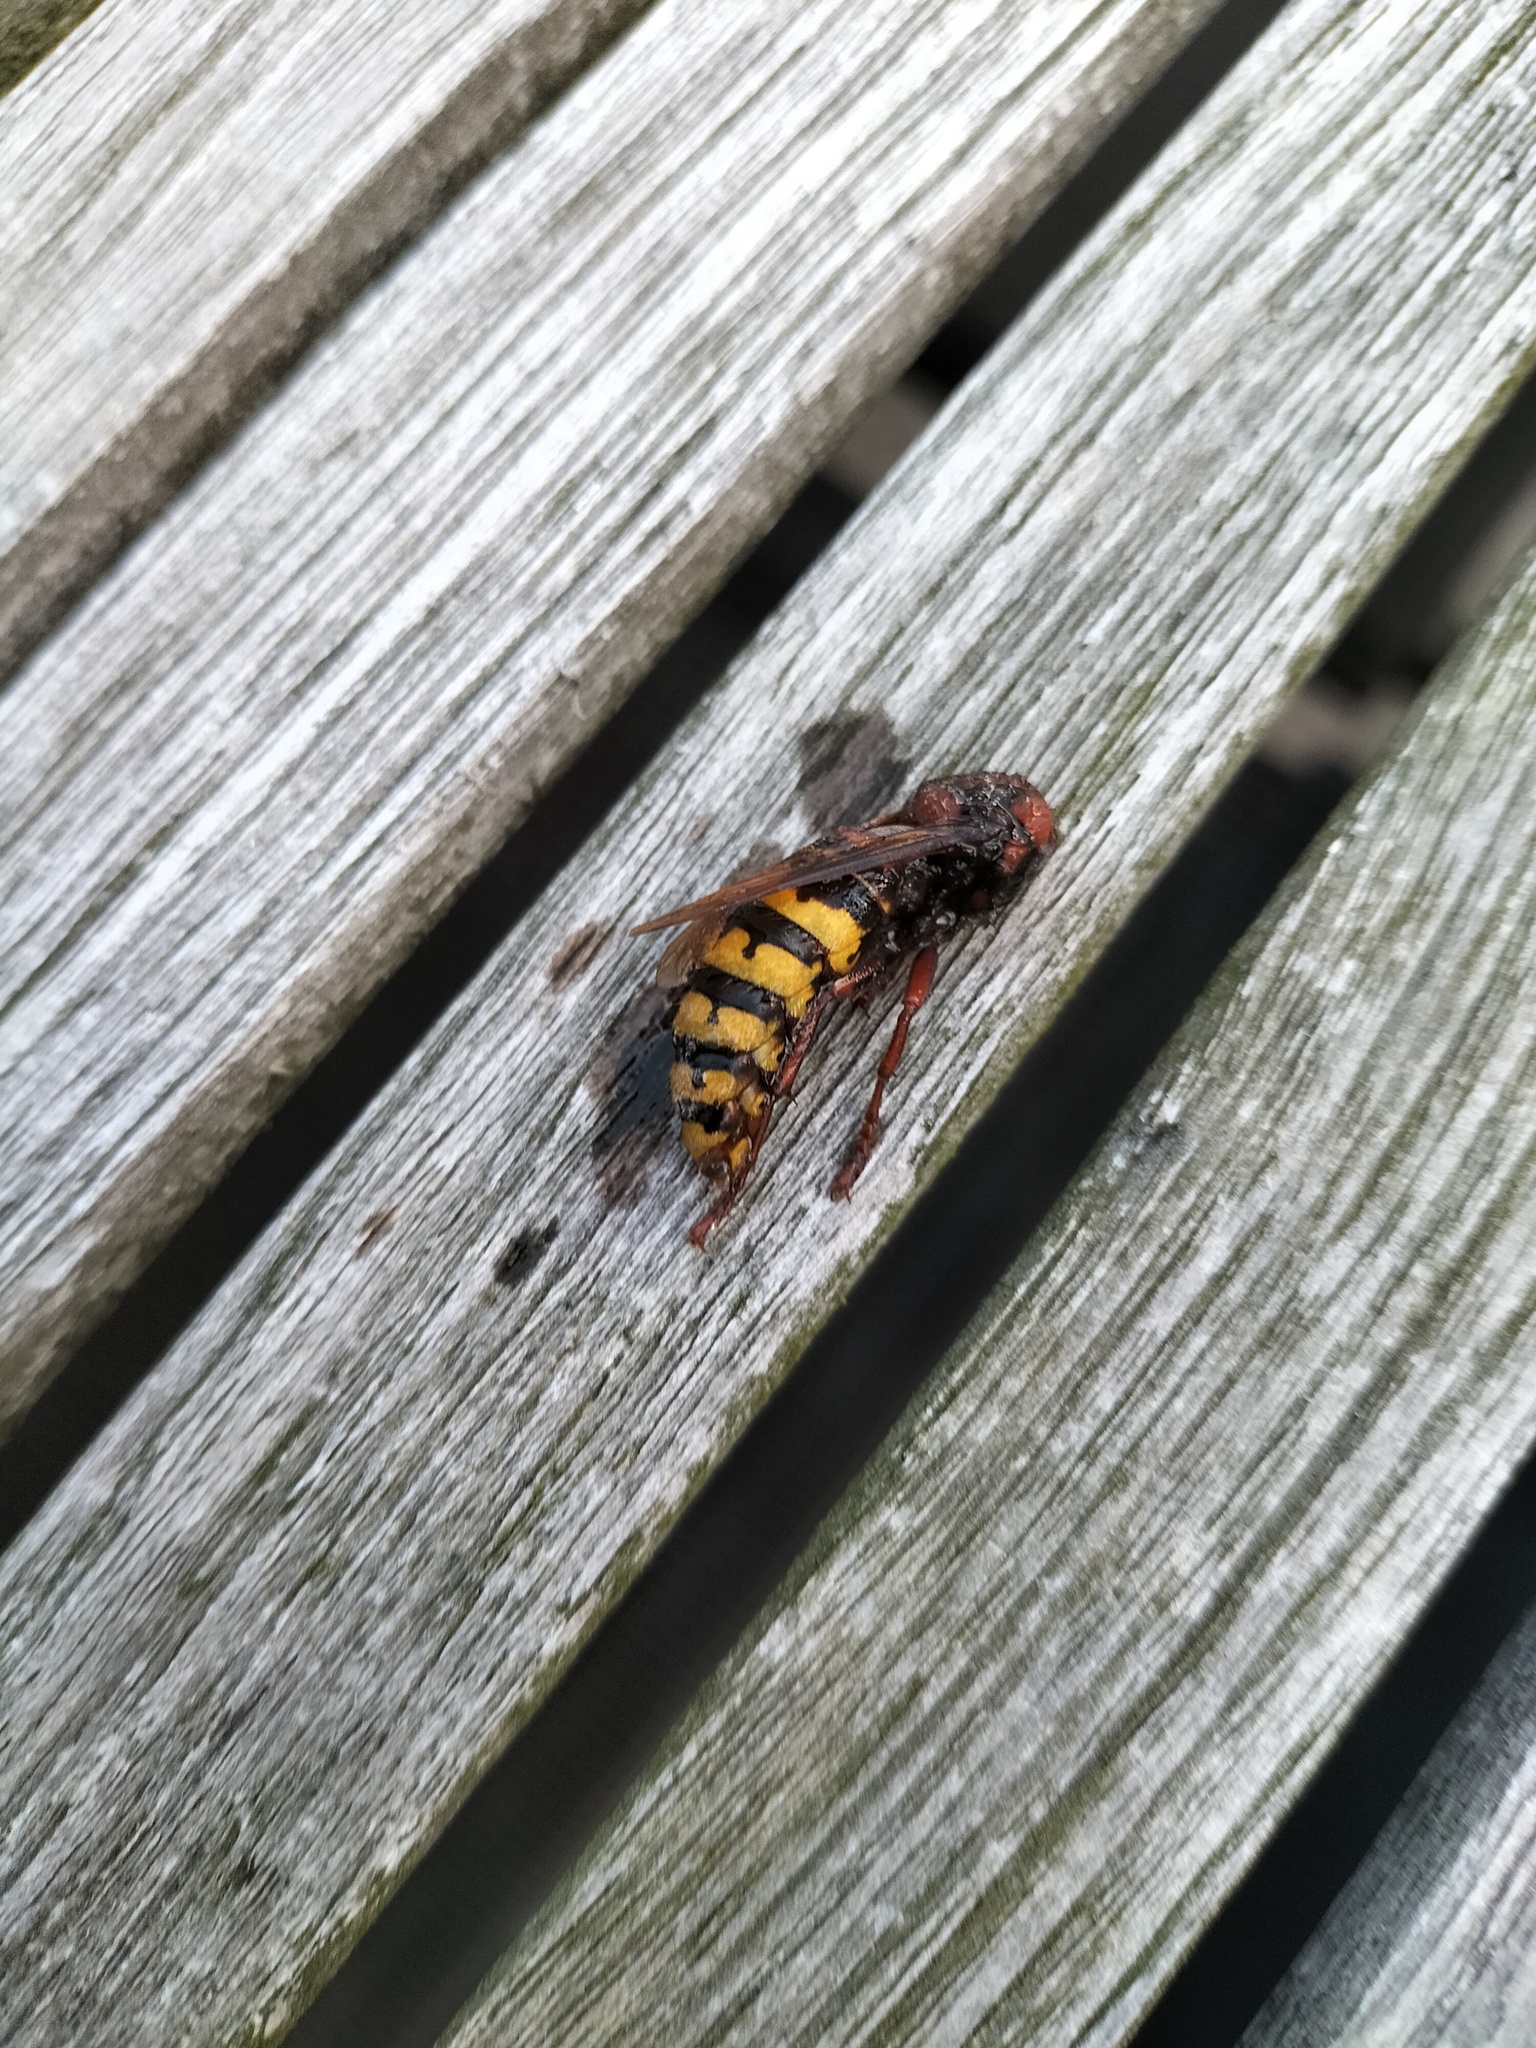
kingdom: Animalia
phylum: Arthropoda
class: Insecta
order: Hymenoptera
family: Vespidae
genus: Vespa
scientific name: Vespa crabro
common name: Hornet
